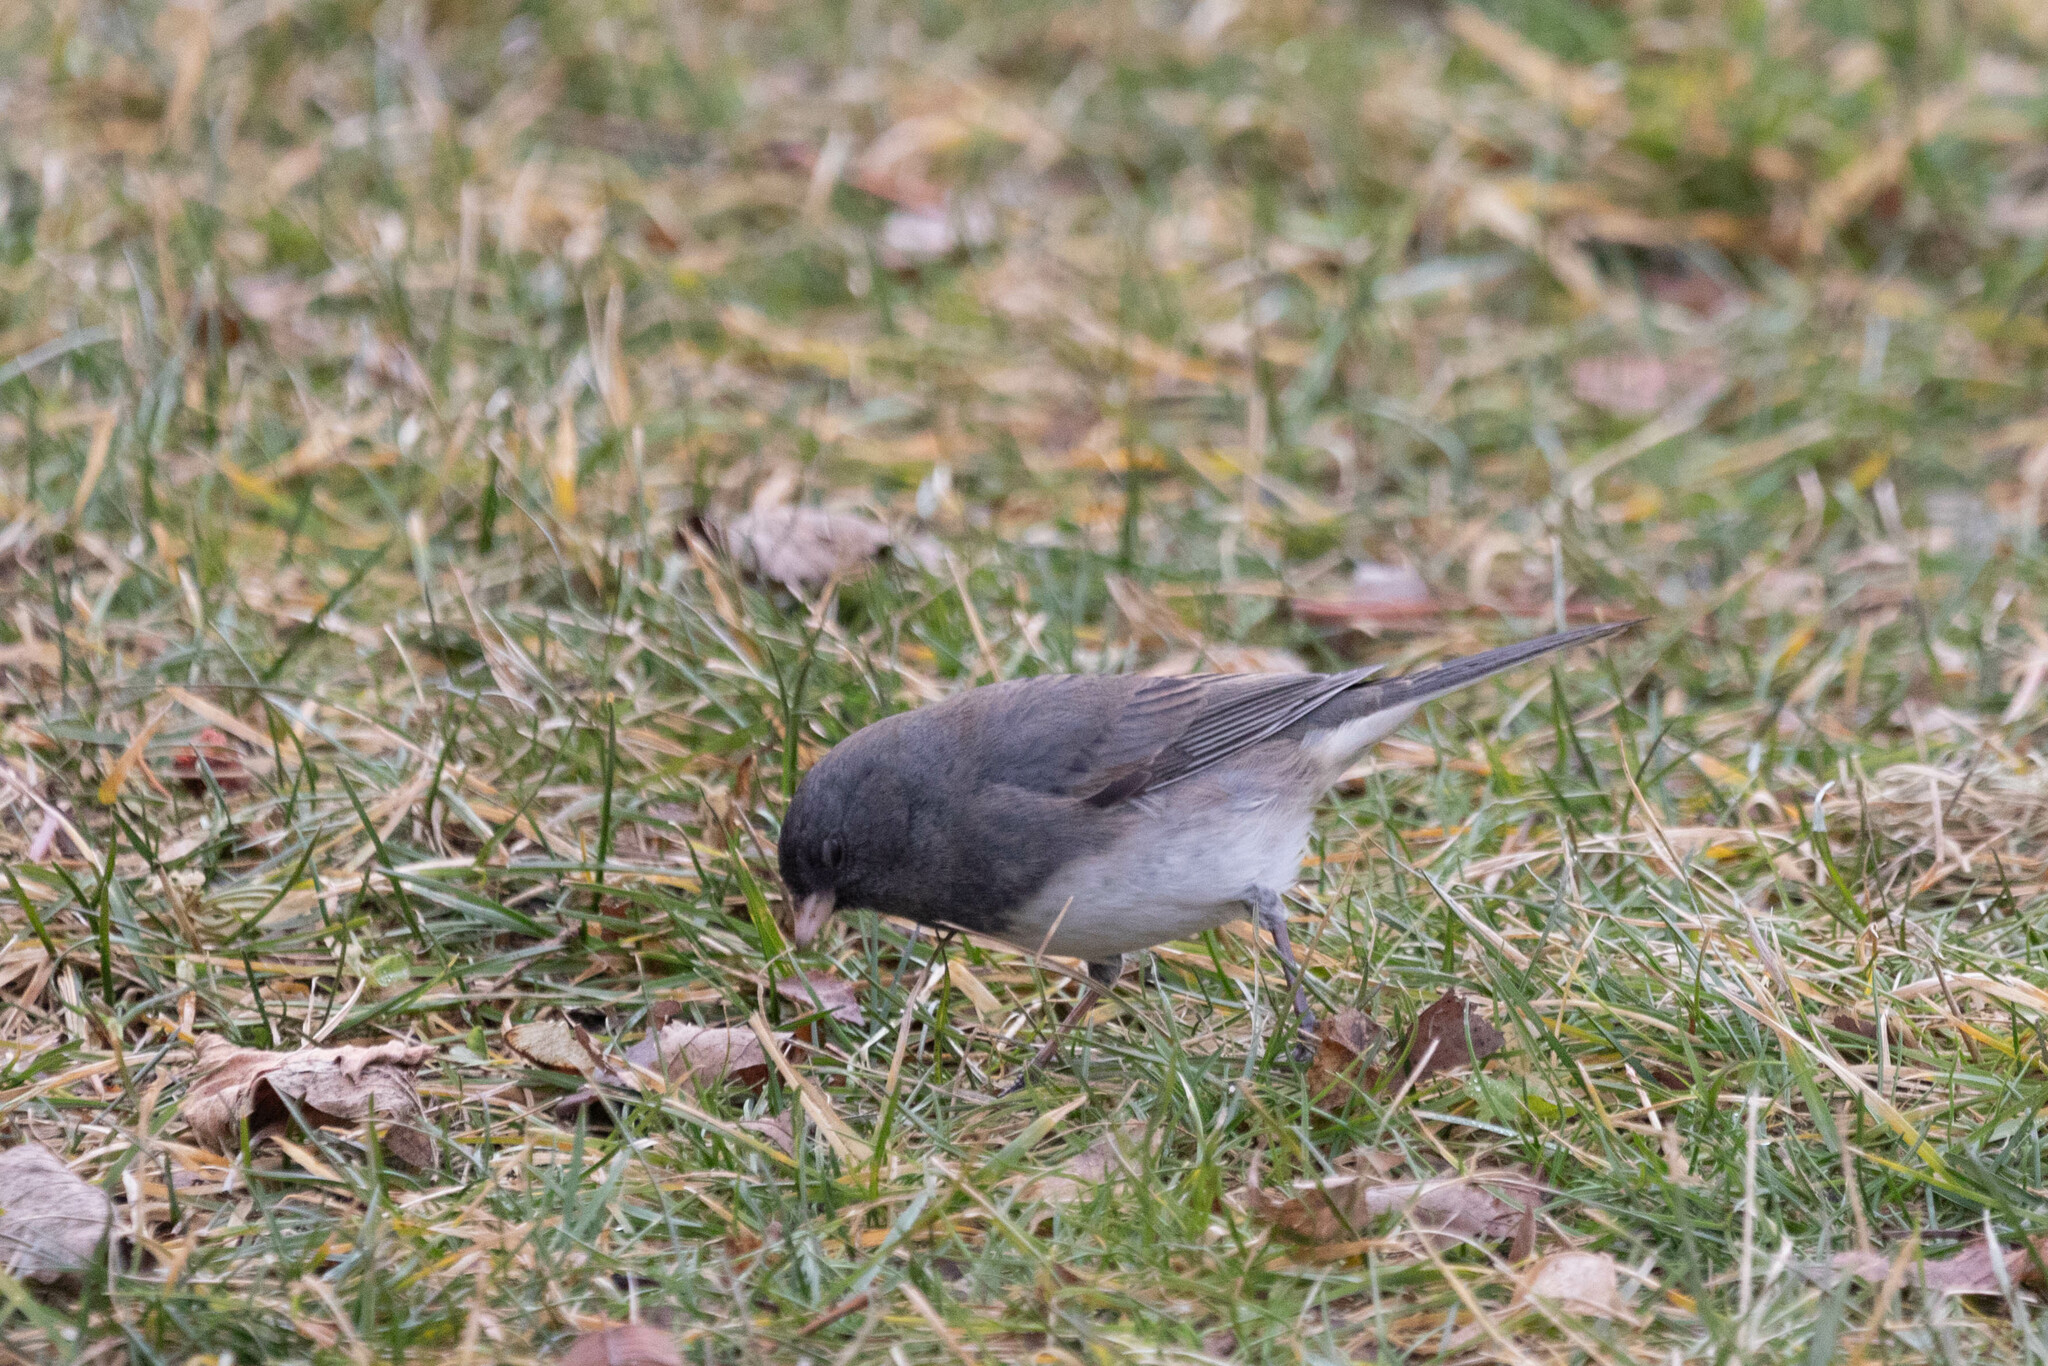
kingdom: Animalia
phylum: Chordata
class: Aves
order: Passeriformes
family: Passerellidae
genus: Junco
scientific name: Junco hyemalis
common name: Dark-eyed junco
